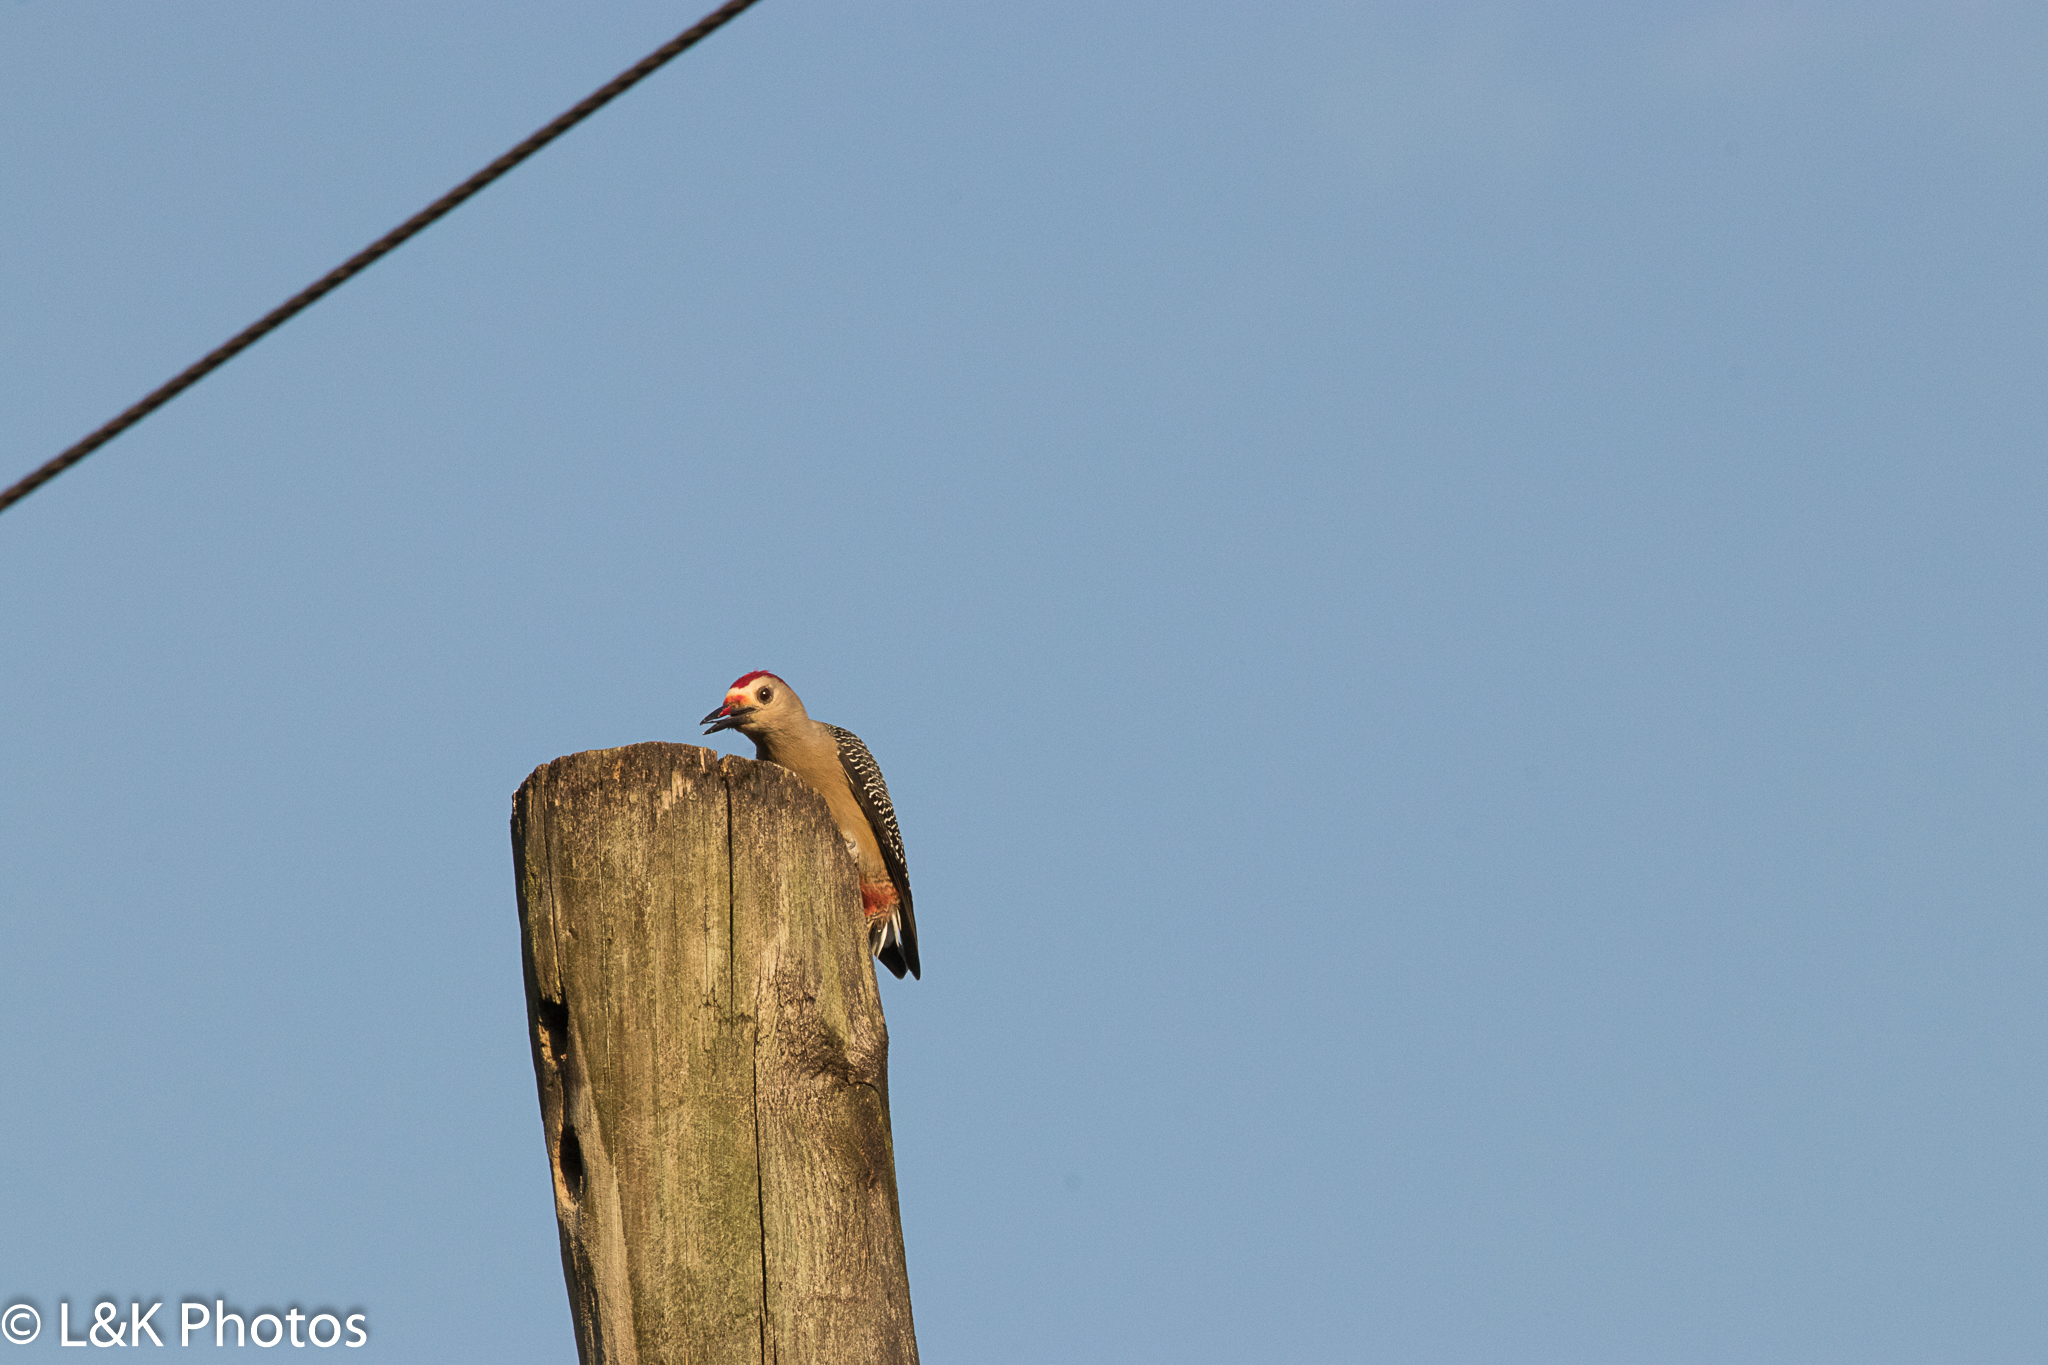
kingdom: Animalia
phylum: Chordata
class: Aves
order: Piciformes
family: Picidae
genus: Melanerpes
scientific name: Melanerpes aurifrons
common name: Golden-fronted woodpecker
